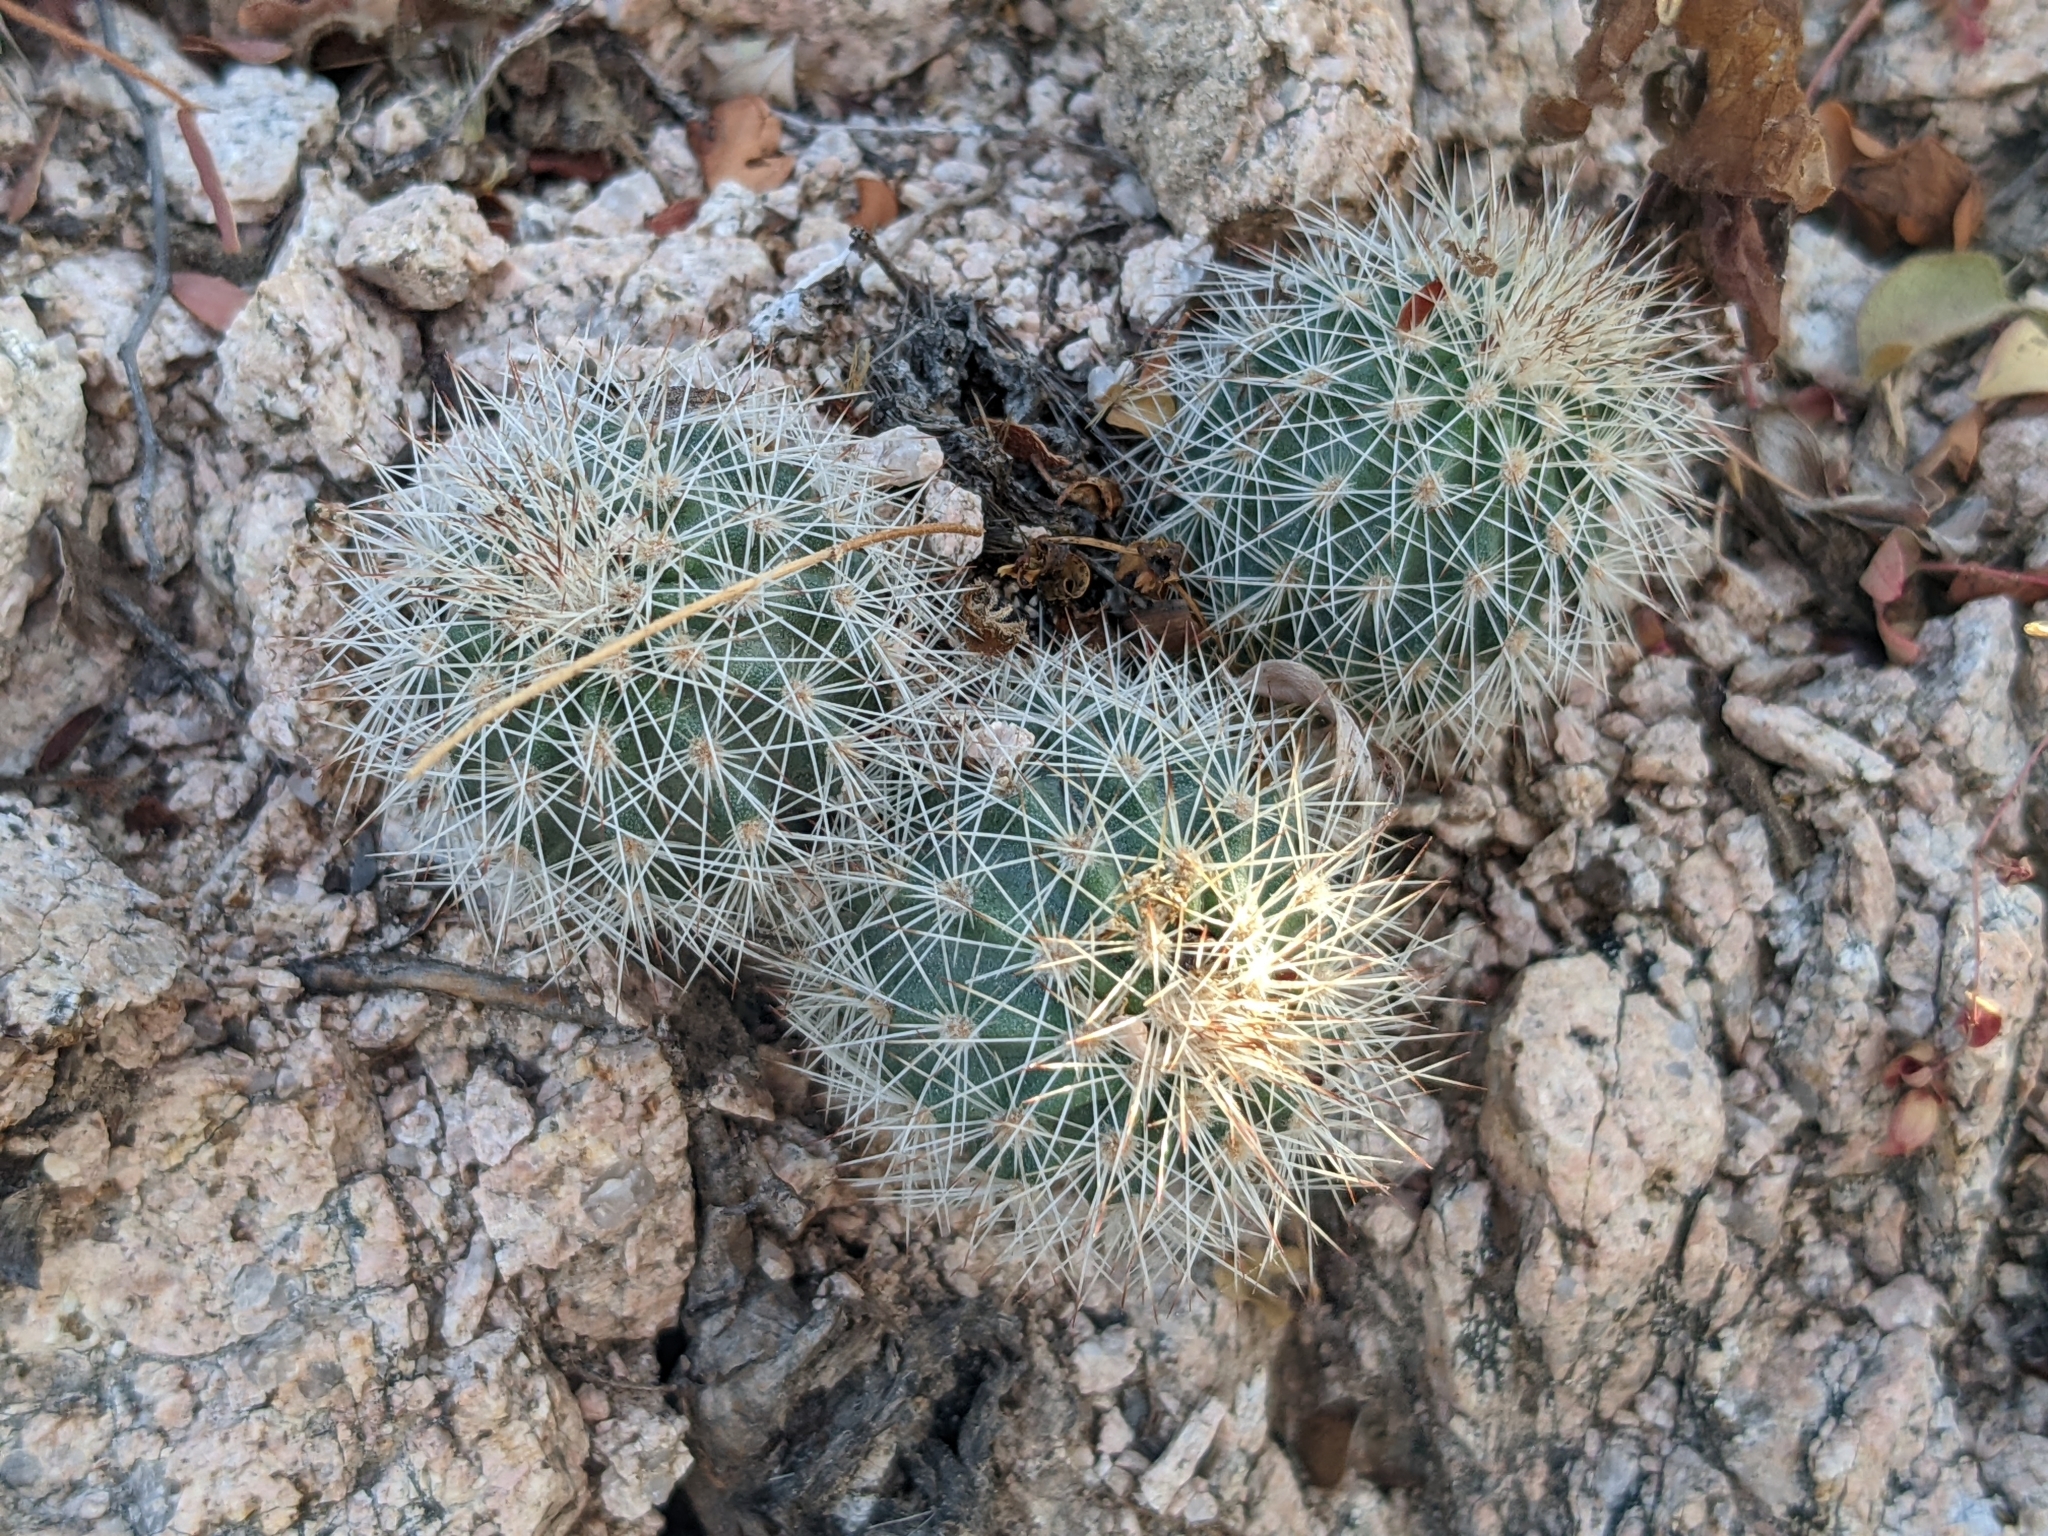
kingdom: Plantae
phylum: Tracheophyta
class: Magnoliopsida
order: Caryophyllales
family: Cactaceae
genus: Echinocereus
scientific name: Echinocereus sciurus
